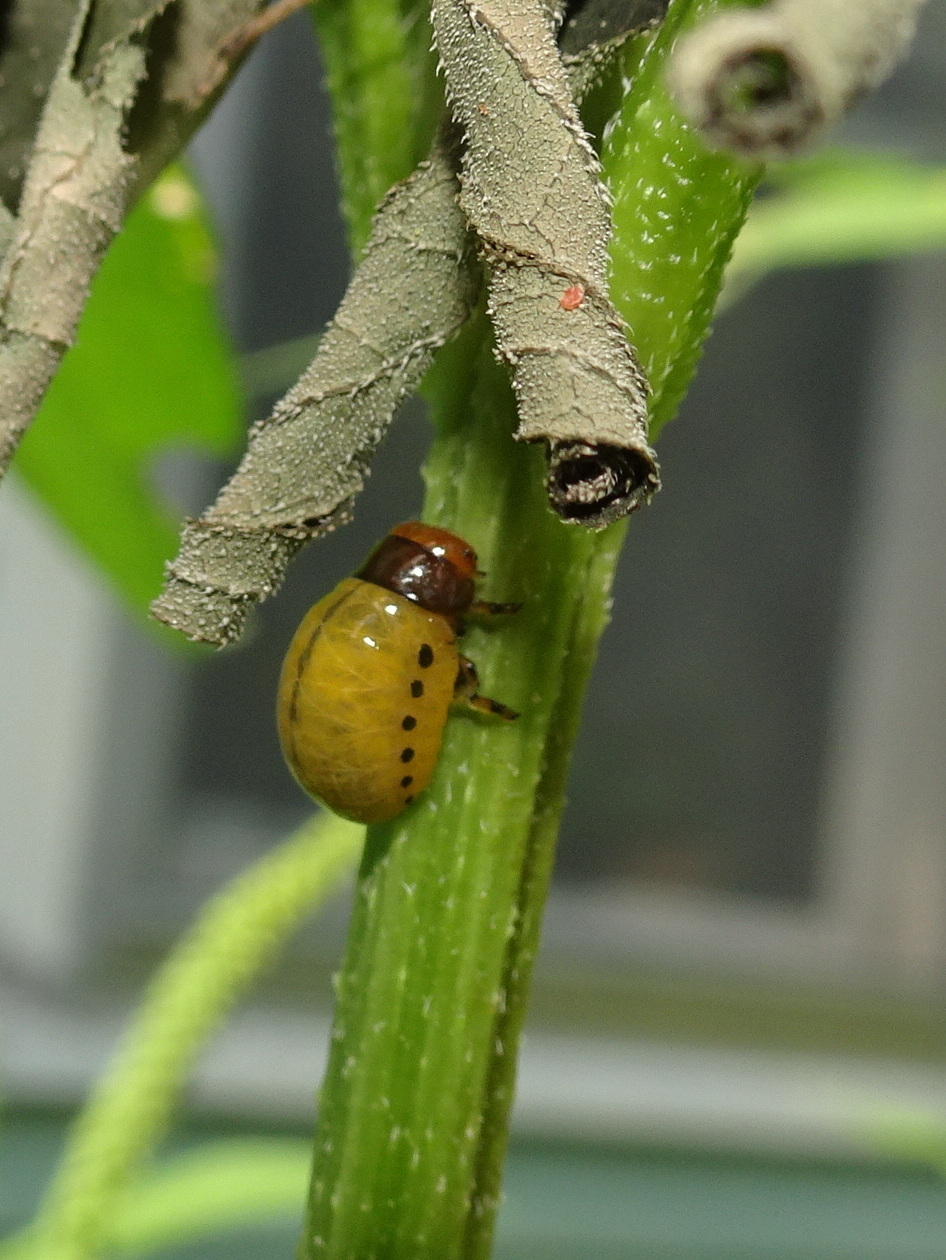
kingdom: Animalia
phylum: Arthropoda
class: Insecta
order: Coleoptera
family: Chrysomelidae
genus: Labidomera
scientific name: Labidomera clivicollis
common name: Swamp milkweed leaf beetle
